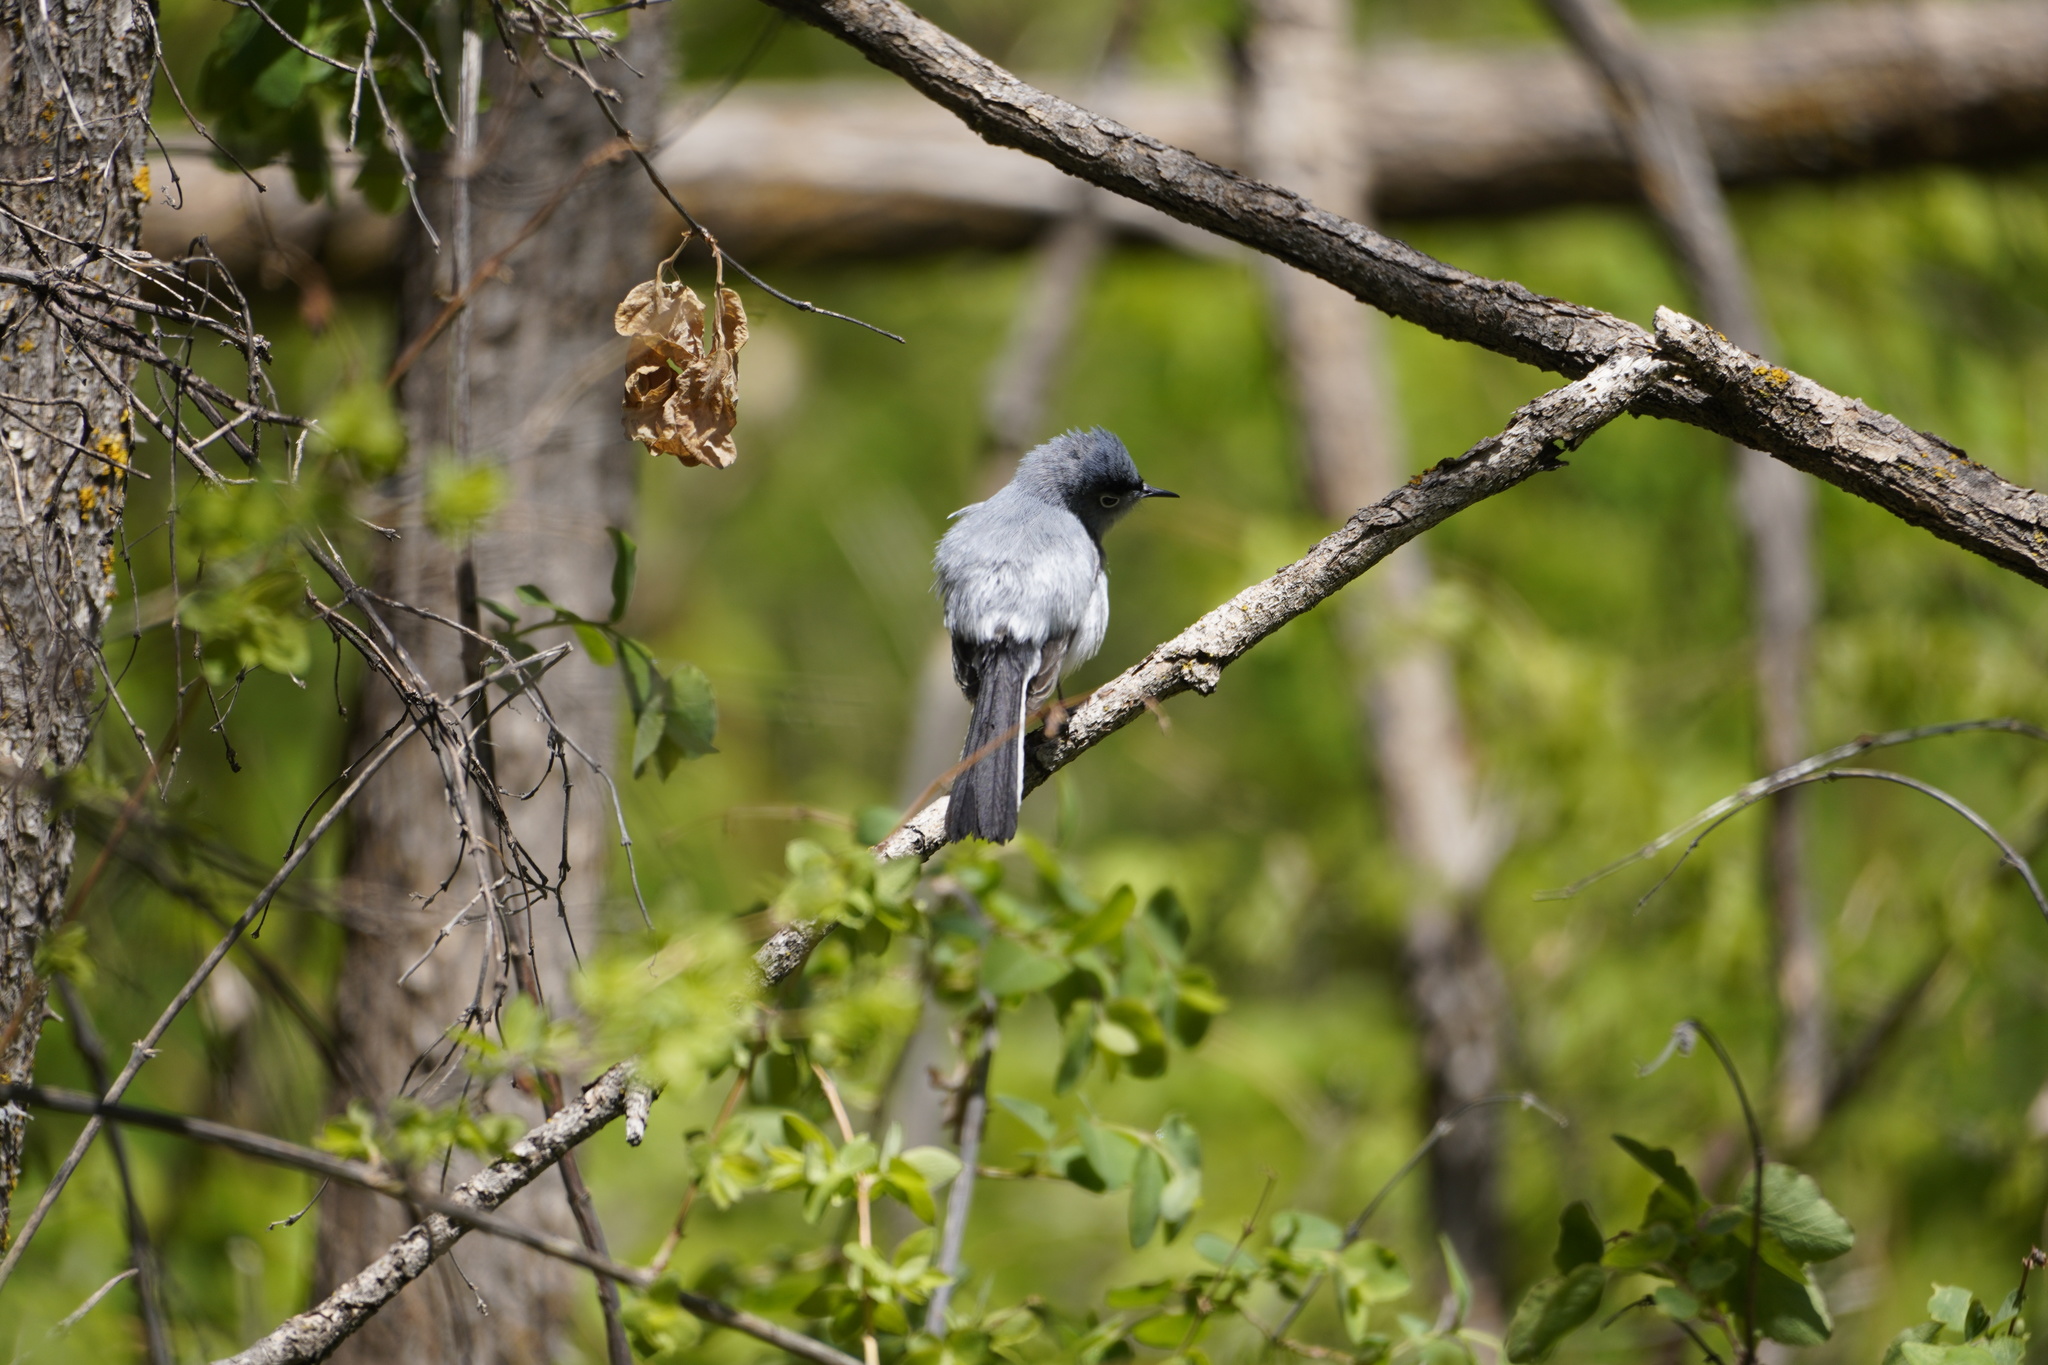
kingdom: Animalia
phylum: Chordata
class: Aves
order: Passeriformes
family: Polioptilidae
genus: Polioptila
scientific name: Polioptila caerulea
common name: Blue-gray gnatcatcher
